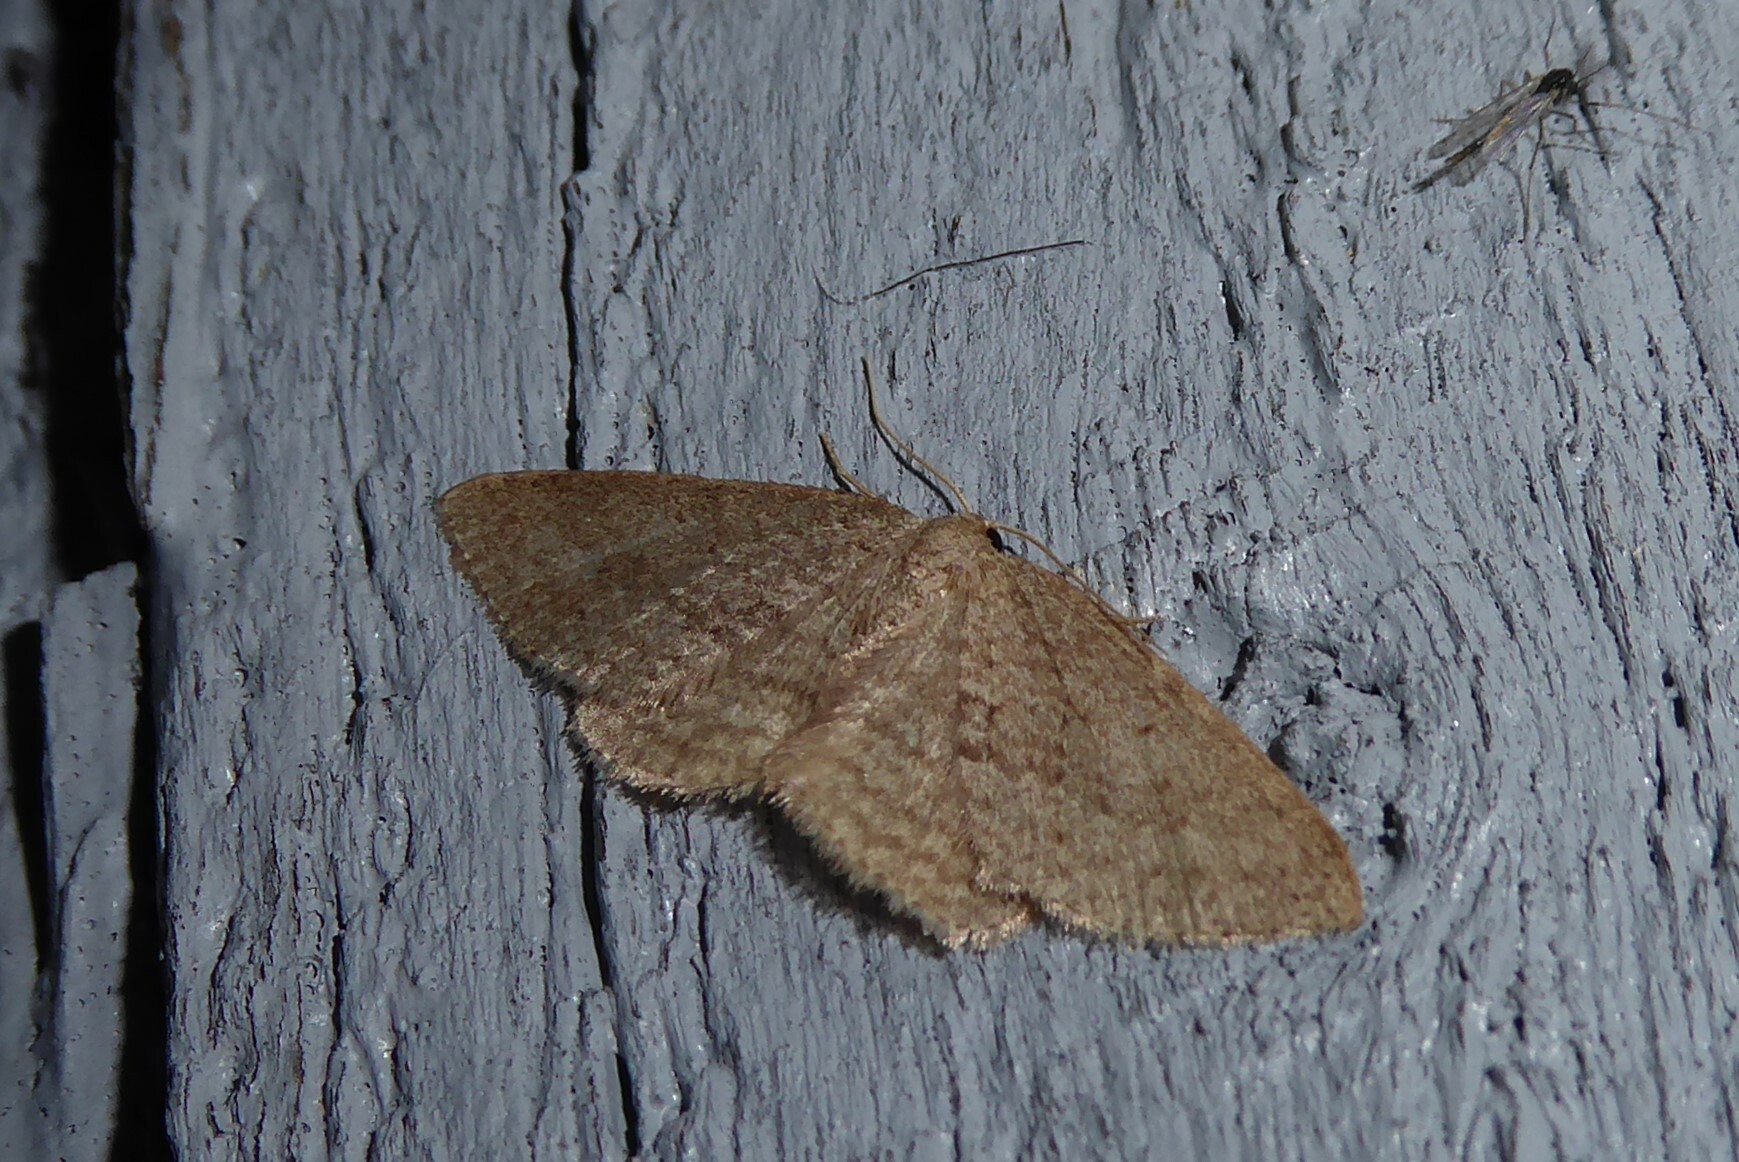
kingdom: Animalia
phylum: Arthropoda
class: Insecta
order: Lepidoptera
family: Geometridae
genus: Poecilasthena
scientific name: Poecilasthena schistaria
